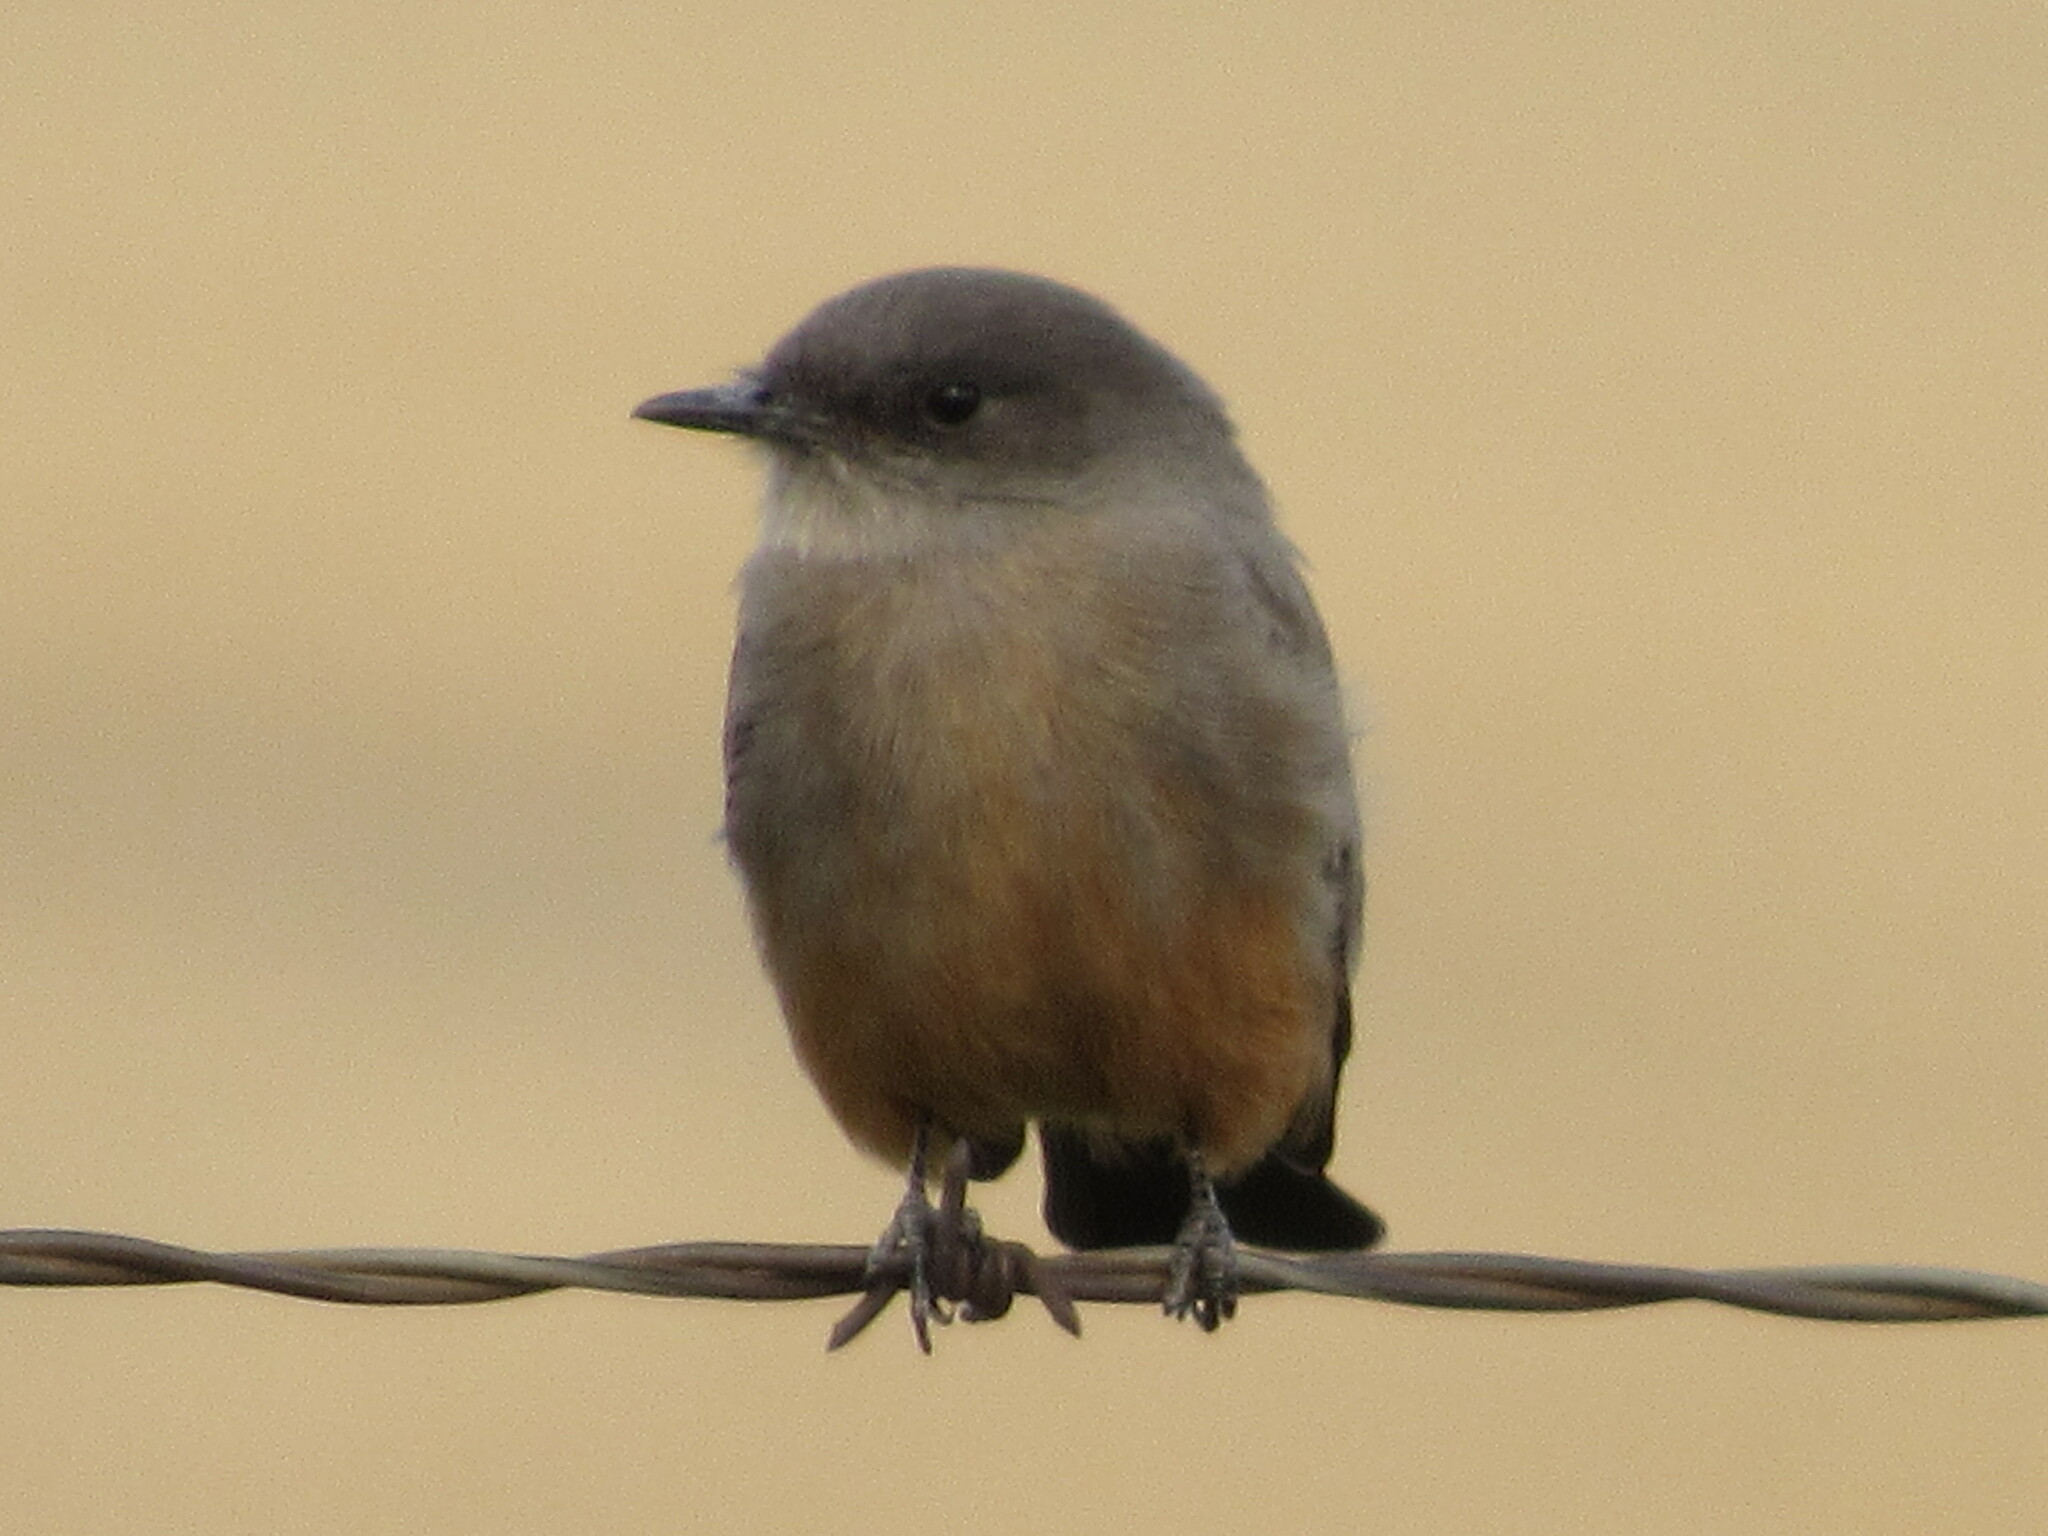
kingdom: Animalia
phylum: Chordata
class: Aves
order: Passeriformes
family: Tyrannidae
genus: Sayornis
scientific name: Sayornis saya
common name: Say's phoebe
